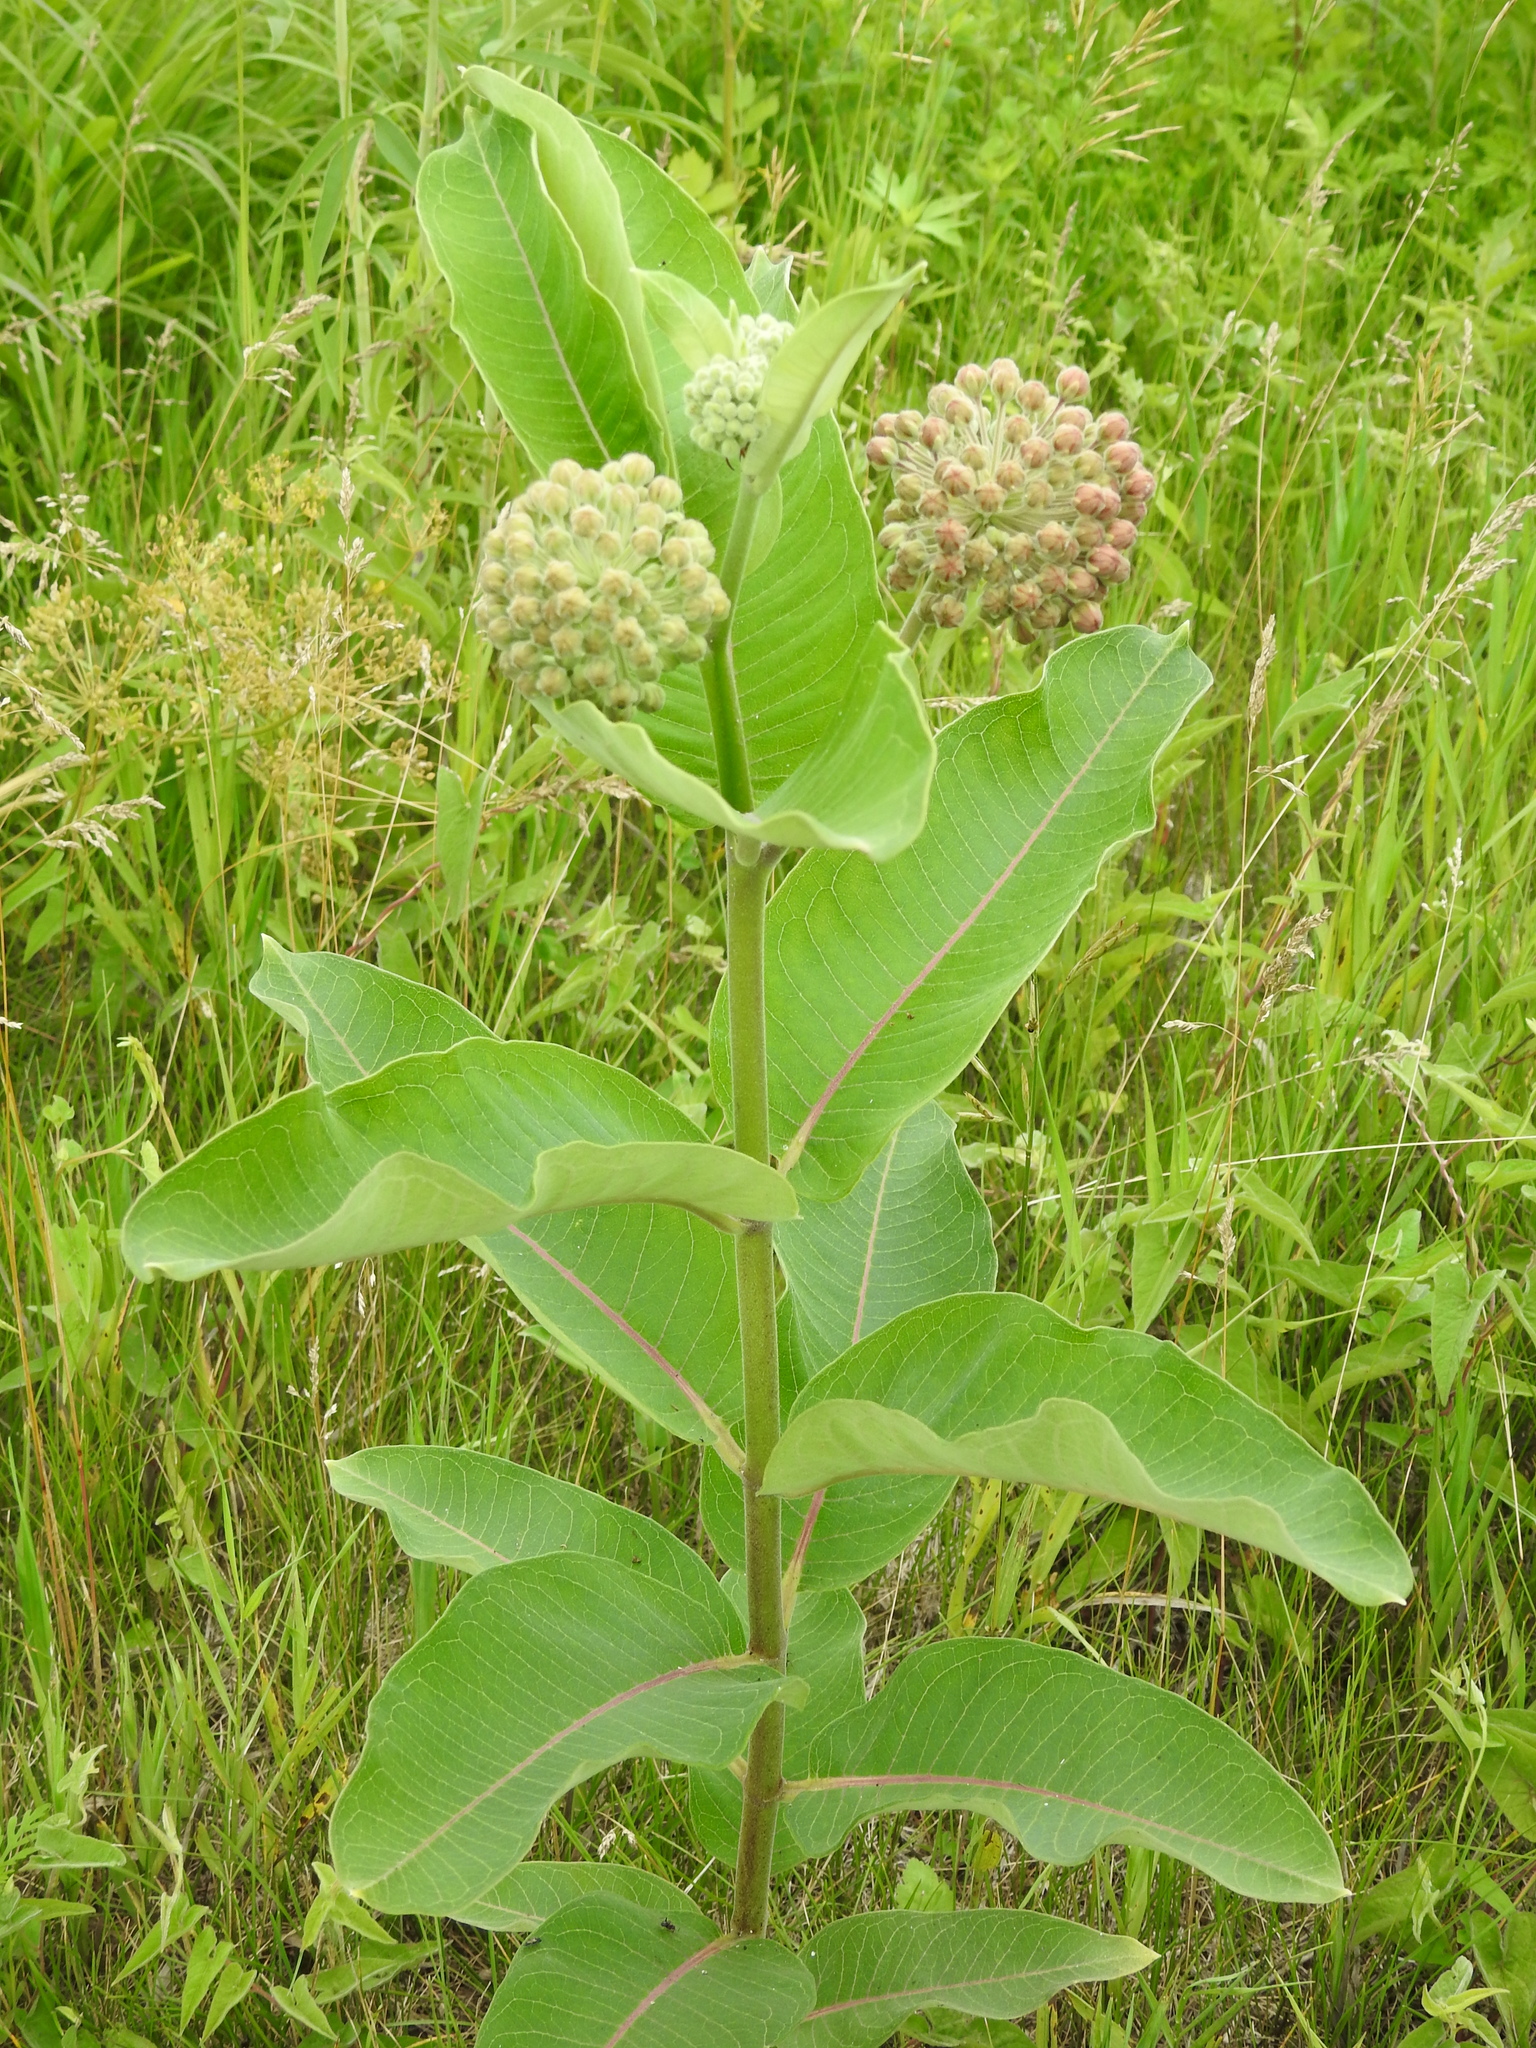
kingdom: Plantae
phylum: Tracheophyta
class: Magnoliopsida
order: Gentianales
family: Apocynaceae
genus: Asclepias
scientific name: Asclepias syriaca
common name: Common milkweed
